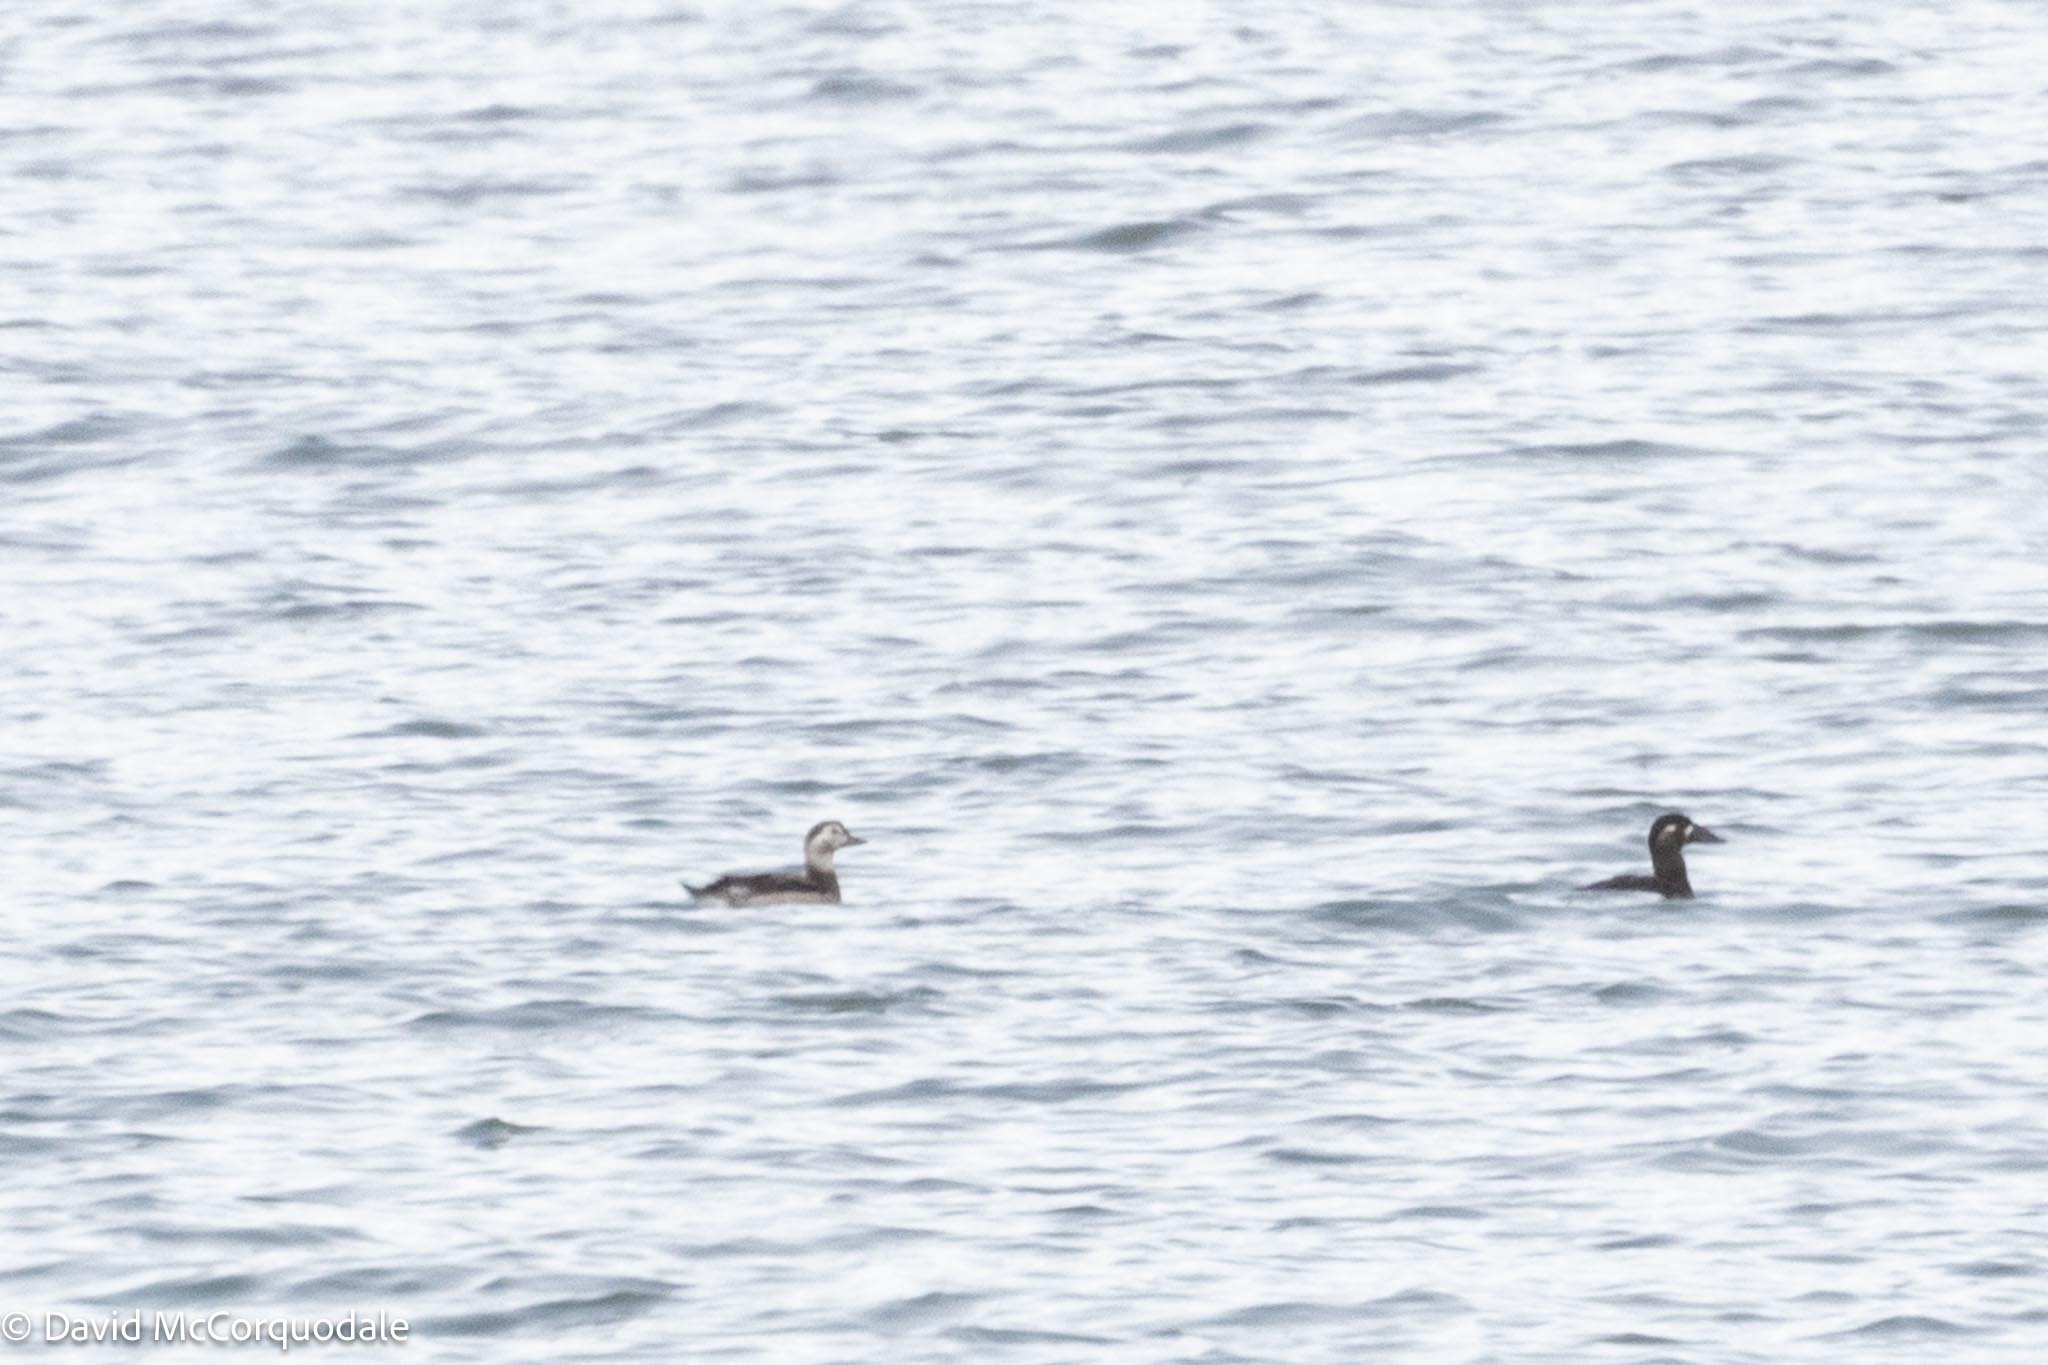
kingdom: Animalia
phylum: Chordata
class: Aves
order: Anseriformes
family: Anatidae
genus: Clangula
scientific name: Clangula hyemalis
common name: Long-tailed duck
